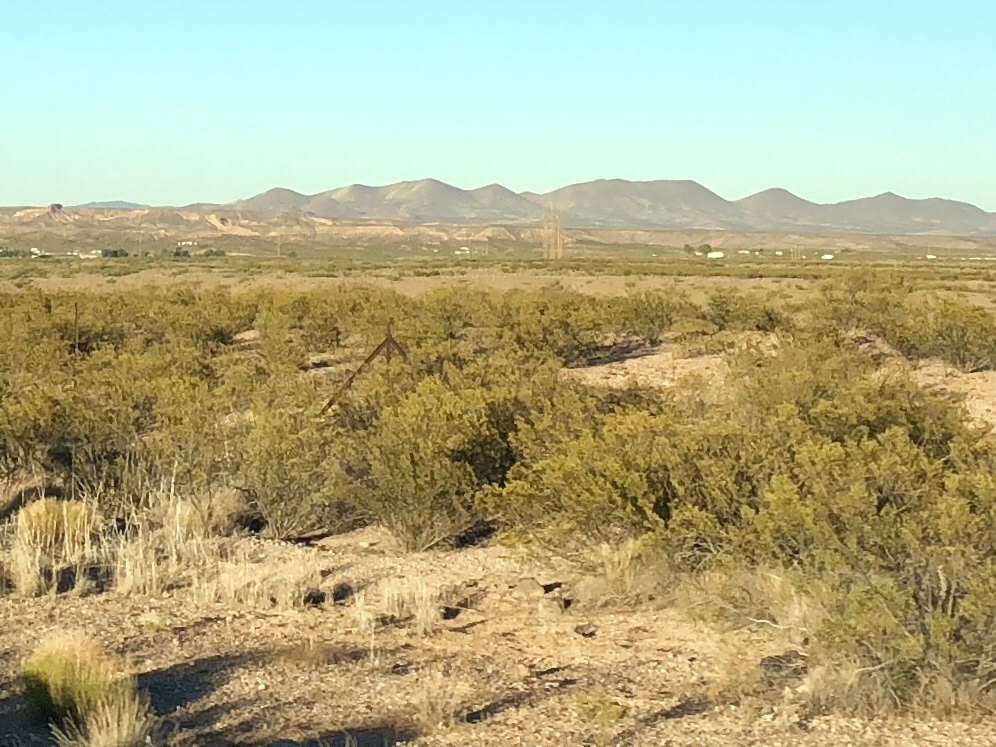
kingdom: Plantae
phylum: Tracheophyta
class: Magnoliopsida
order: Zygophyllales
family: Zygophyllaceae
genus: Larrea
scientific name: Larrea tridentata
